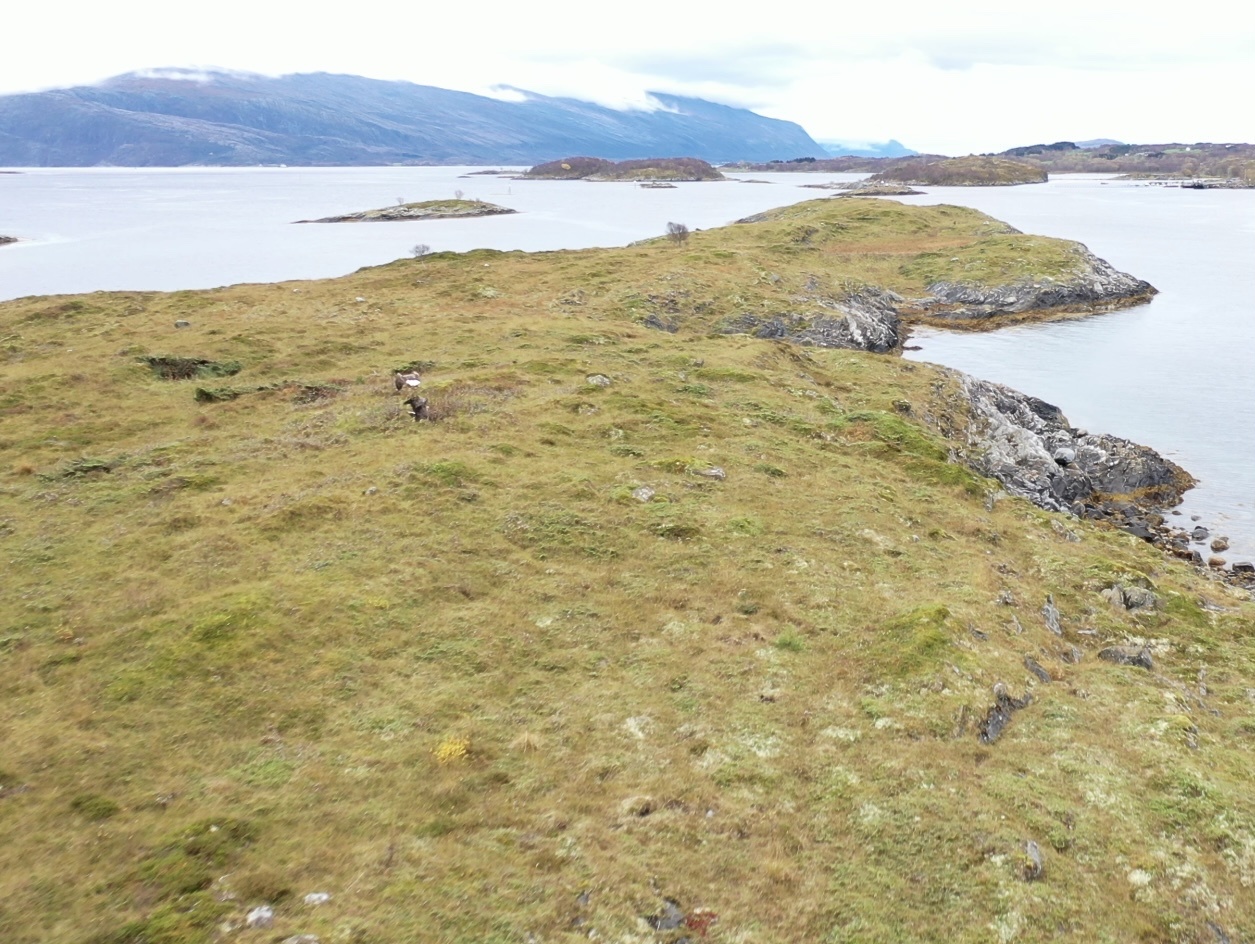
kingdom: Animalia
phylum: Chordata
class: Aves
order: Accipitriformes
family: Accipitridae
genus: Haliaeetus
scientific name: Haliaeetus albicilla
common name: White-tailed eagle
